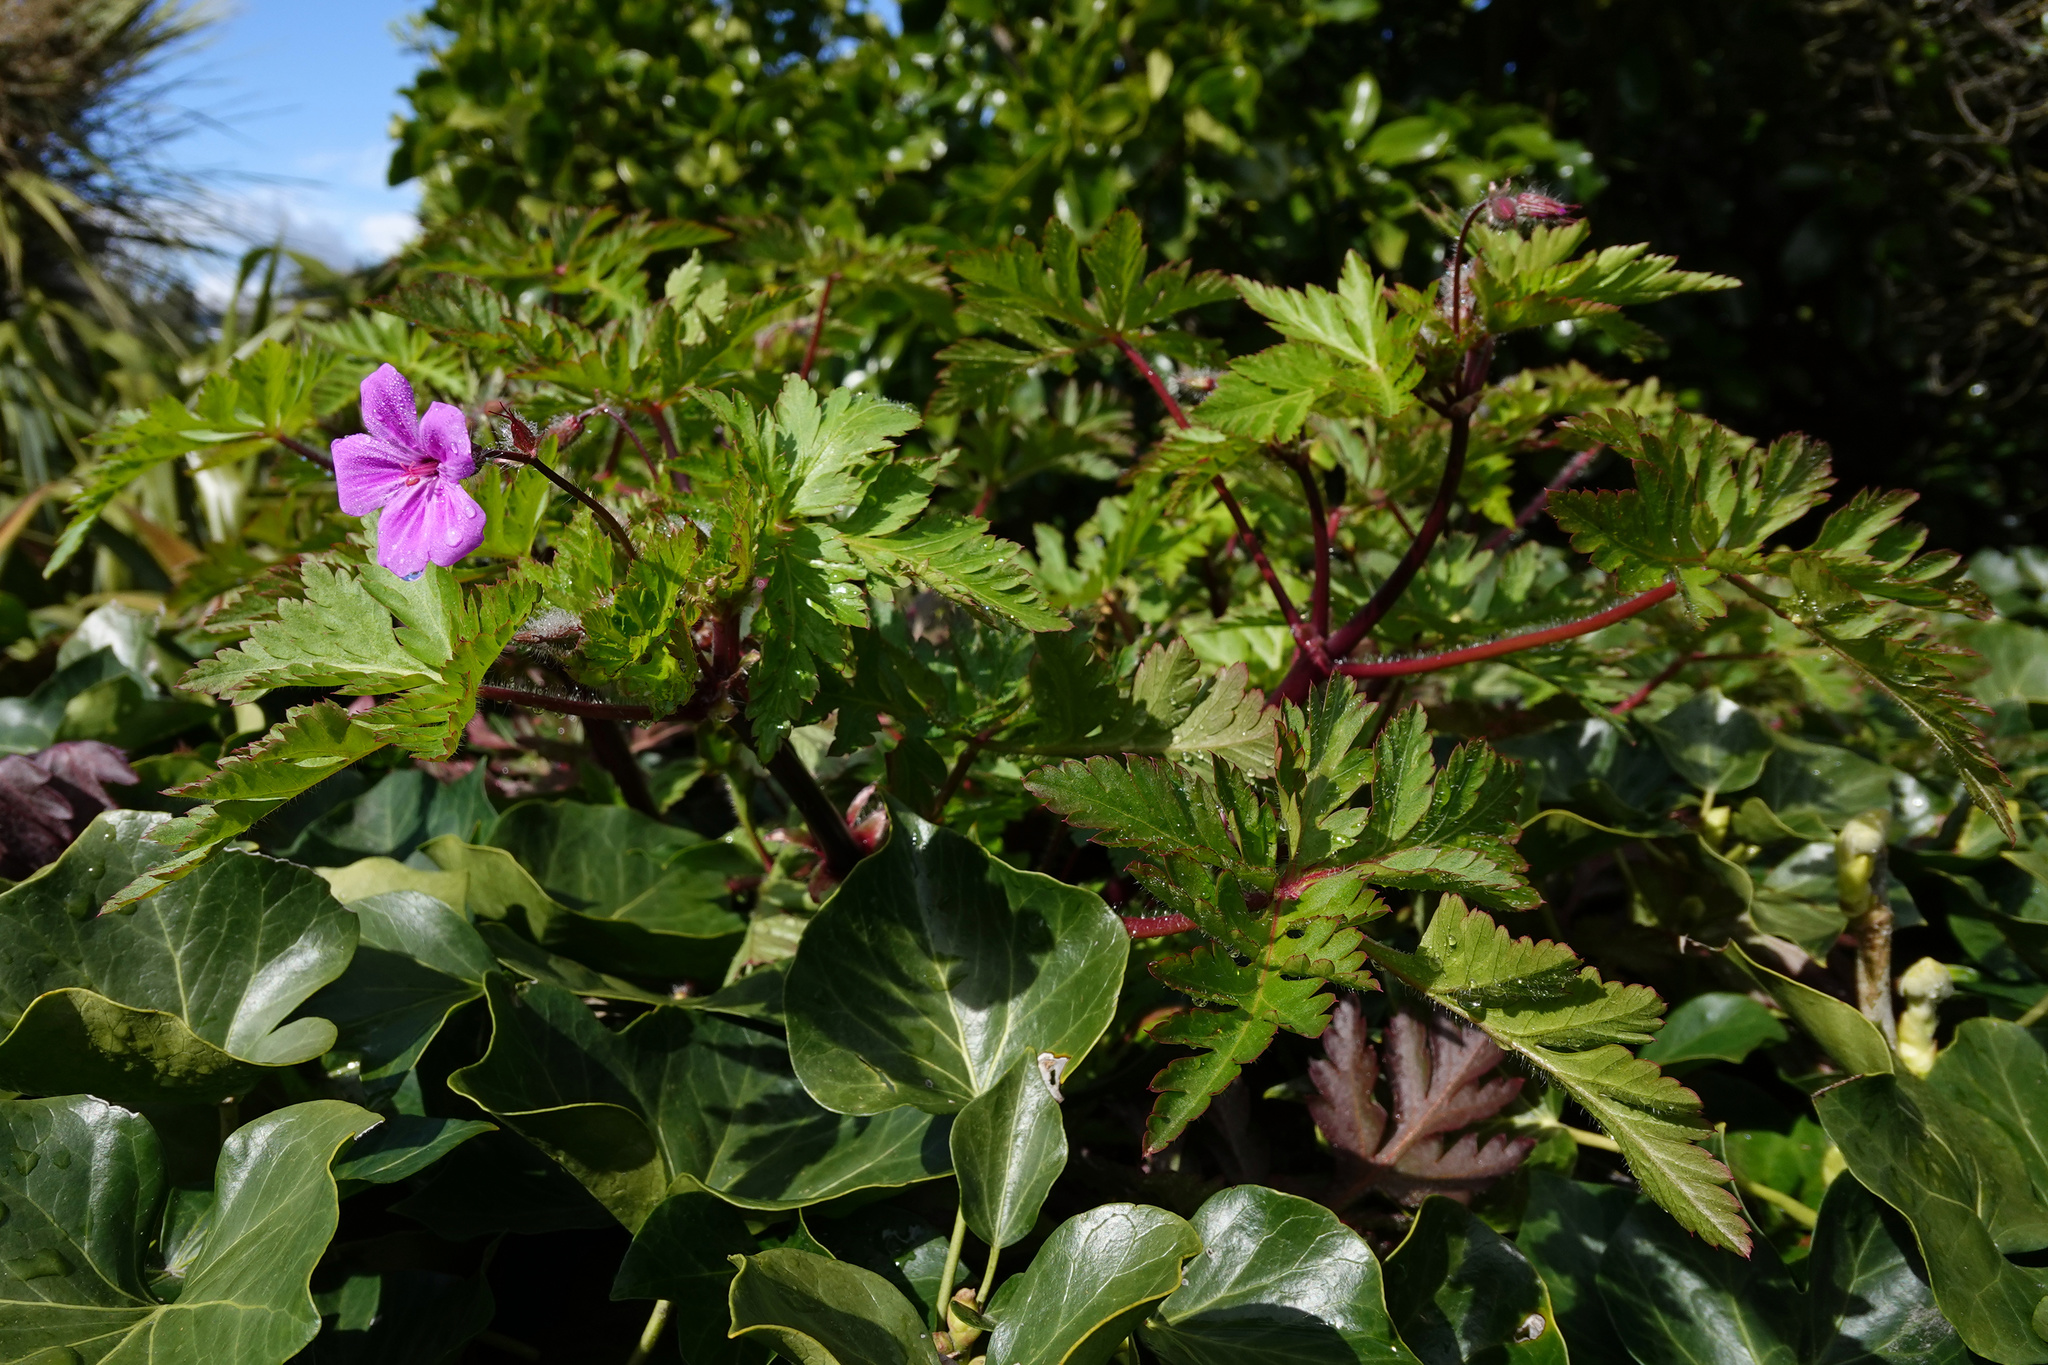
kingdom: Plantae
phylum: Tracheophyta
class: Magnoliopsida
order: Geraniales
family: Geraniaceae
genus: Geranium
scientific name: Geranium yeoi
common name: Greater herb robert
